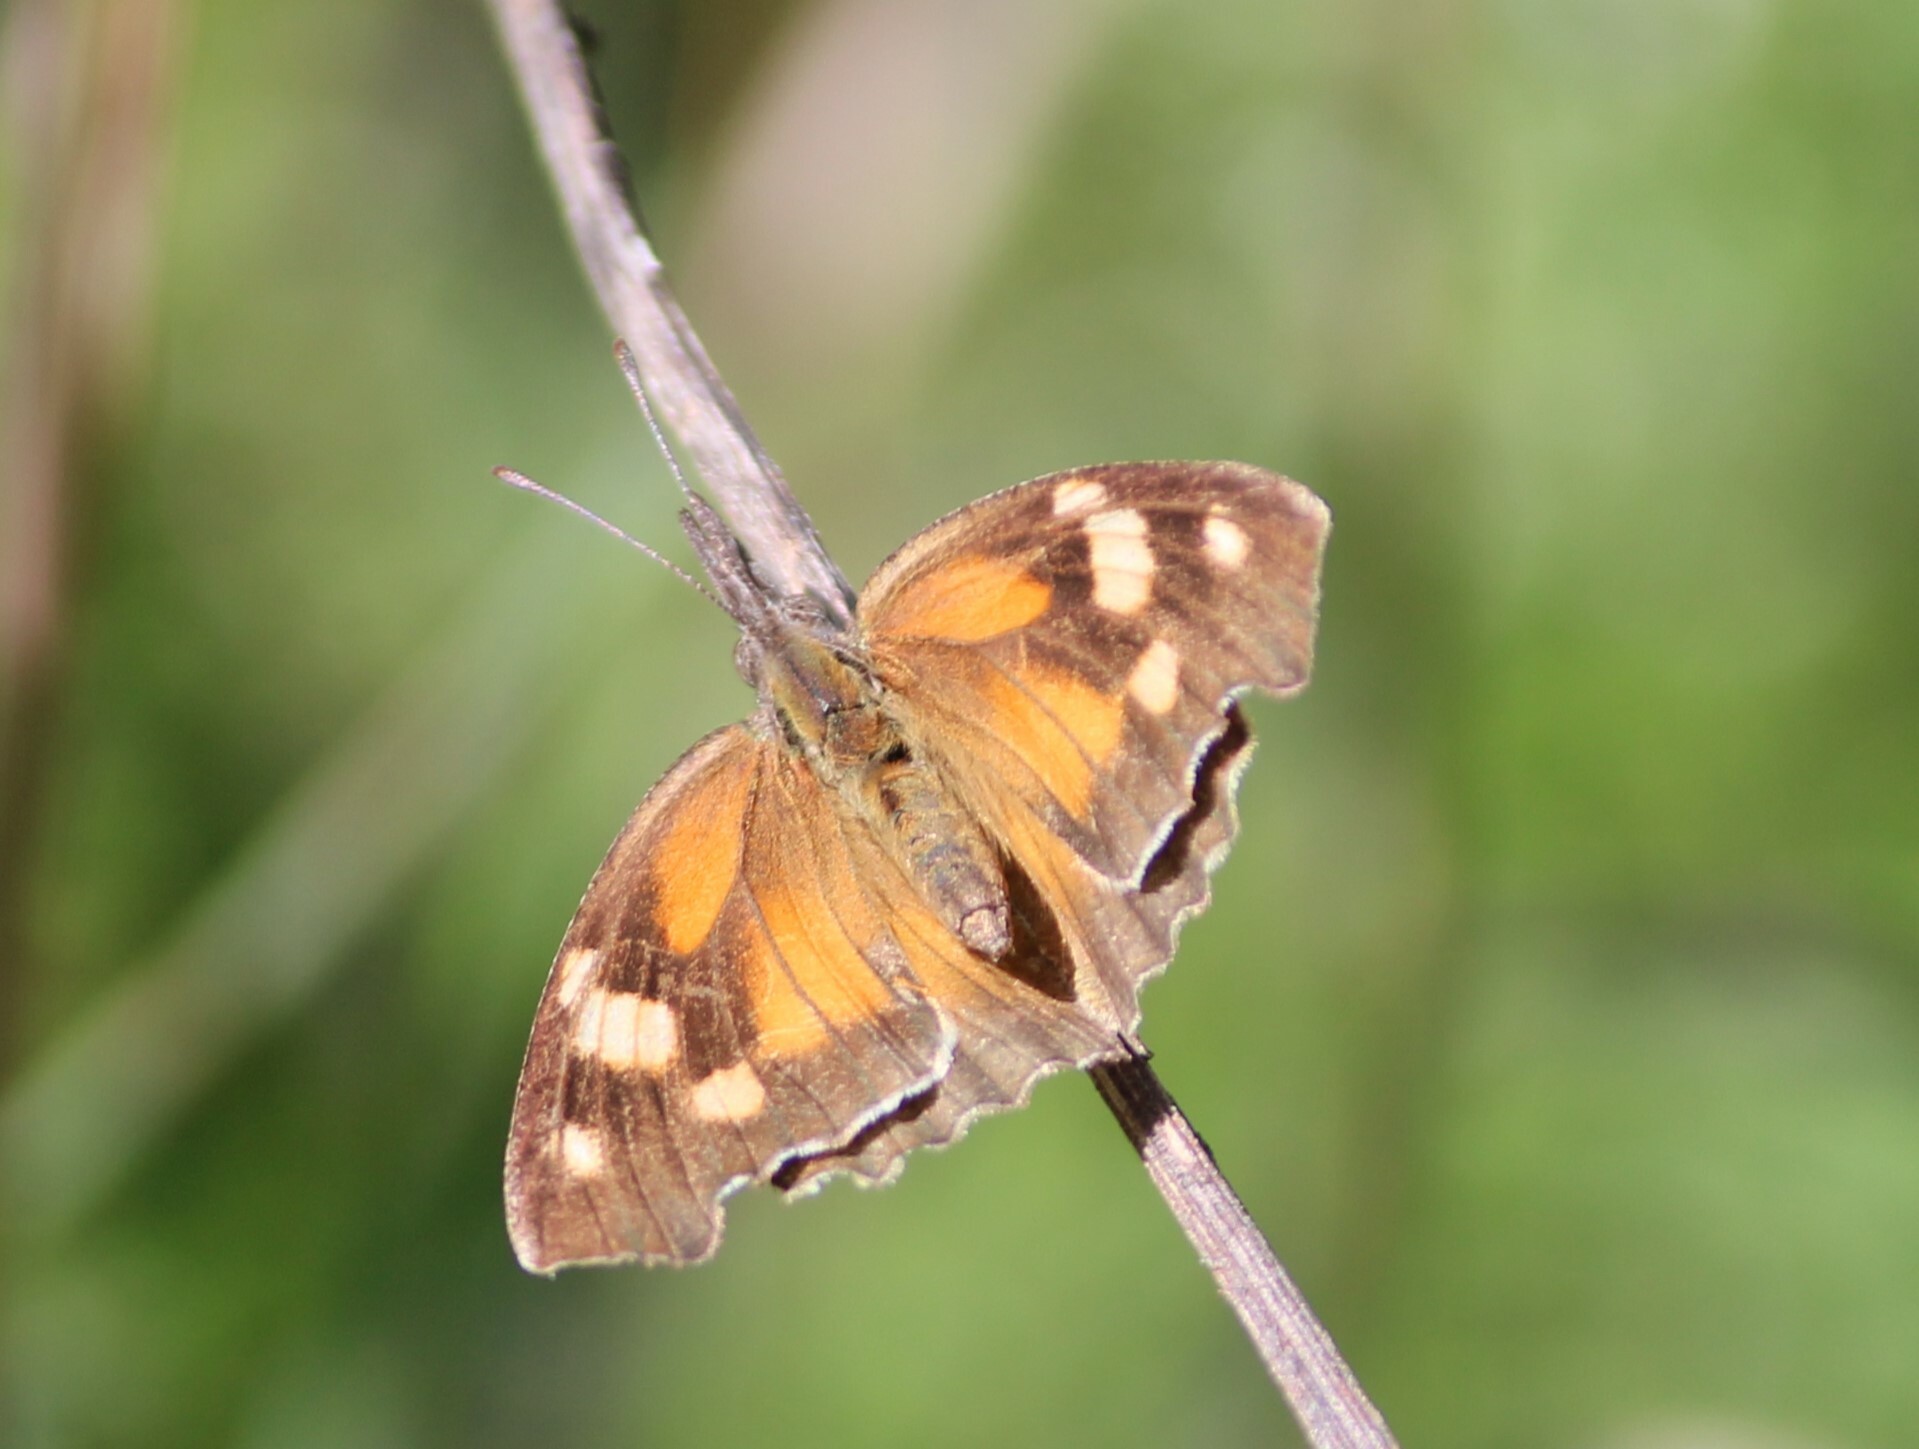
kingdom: Animalia
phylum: Arthropoda
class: Insecta
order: Lepidoptera
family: Nymphalidae
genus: Libytheana
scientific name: Libytheana carinenta
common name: American snout
